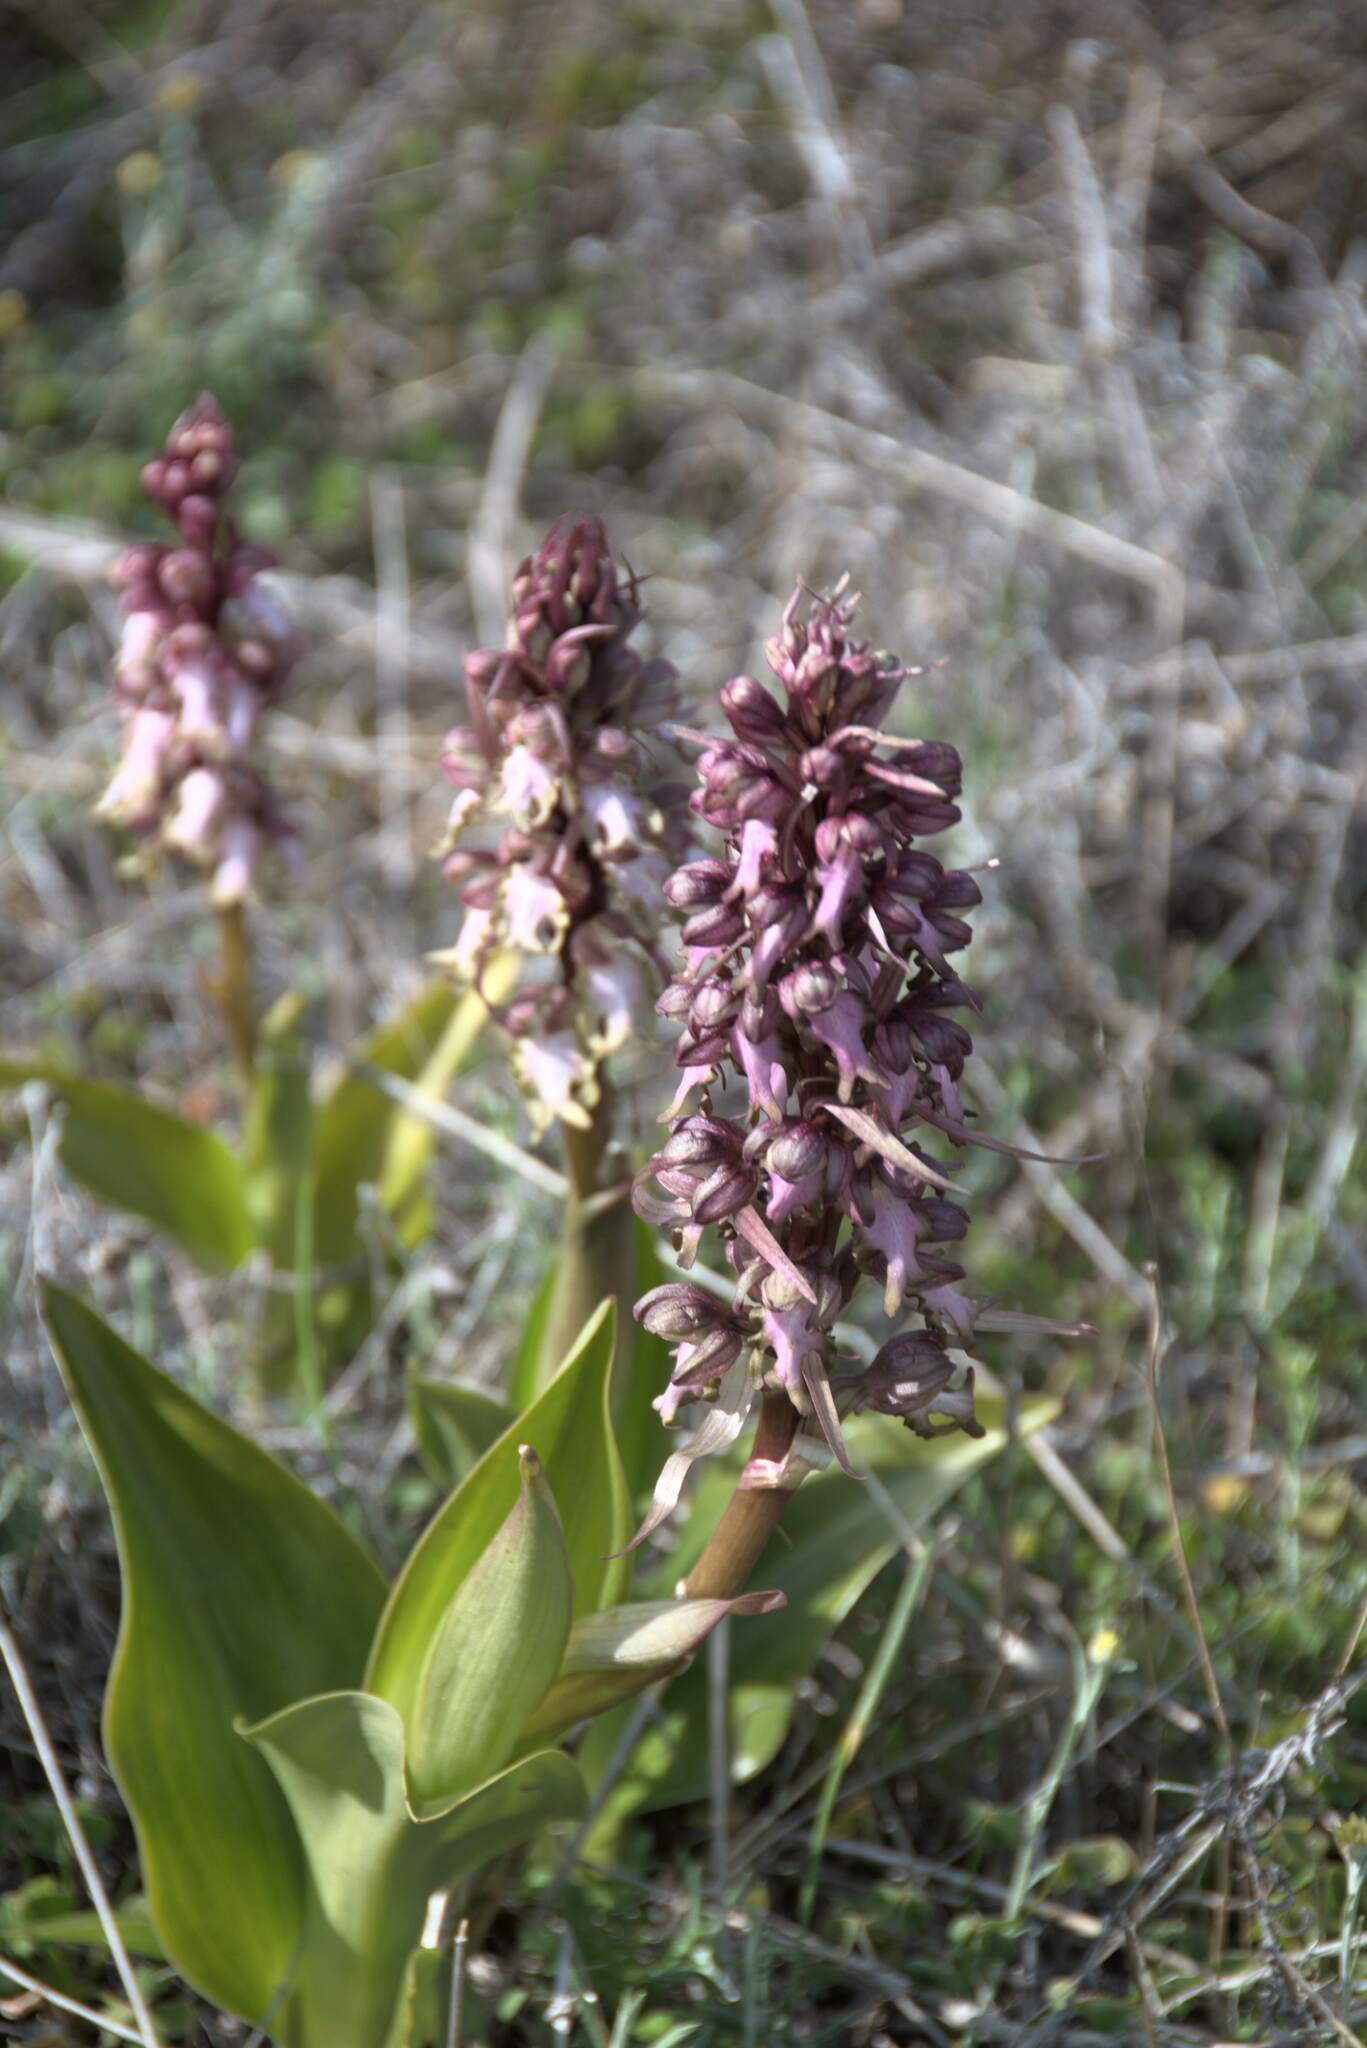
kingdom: Plantae
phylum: Tracheophyta
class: Liliopsida
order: Asparagales
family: Orchidaceae
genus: Himantoglossum
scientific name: Himantoglossum robertianum
